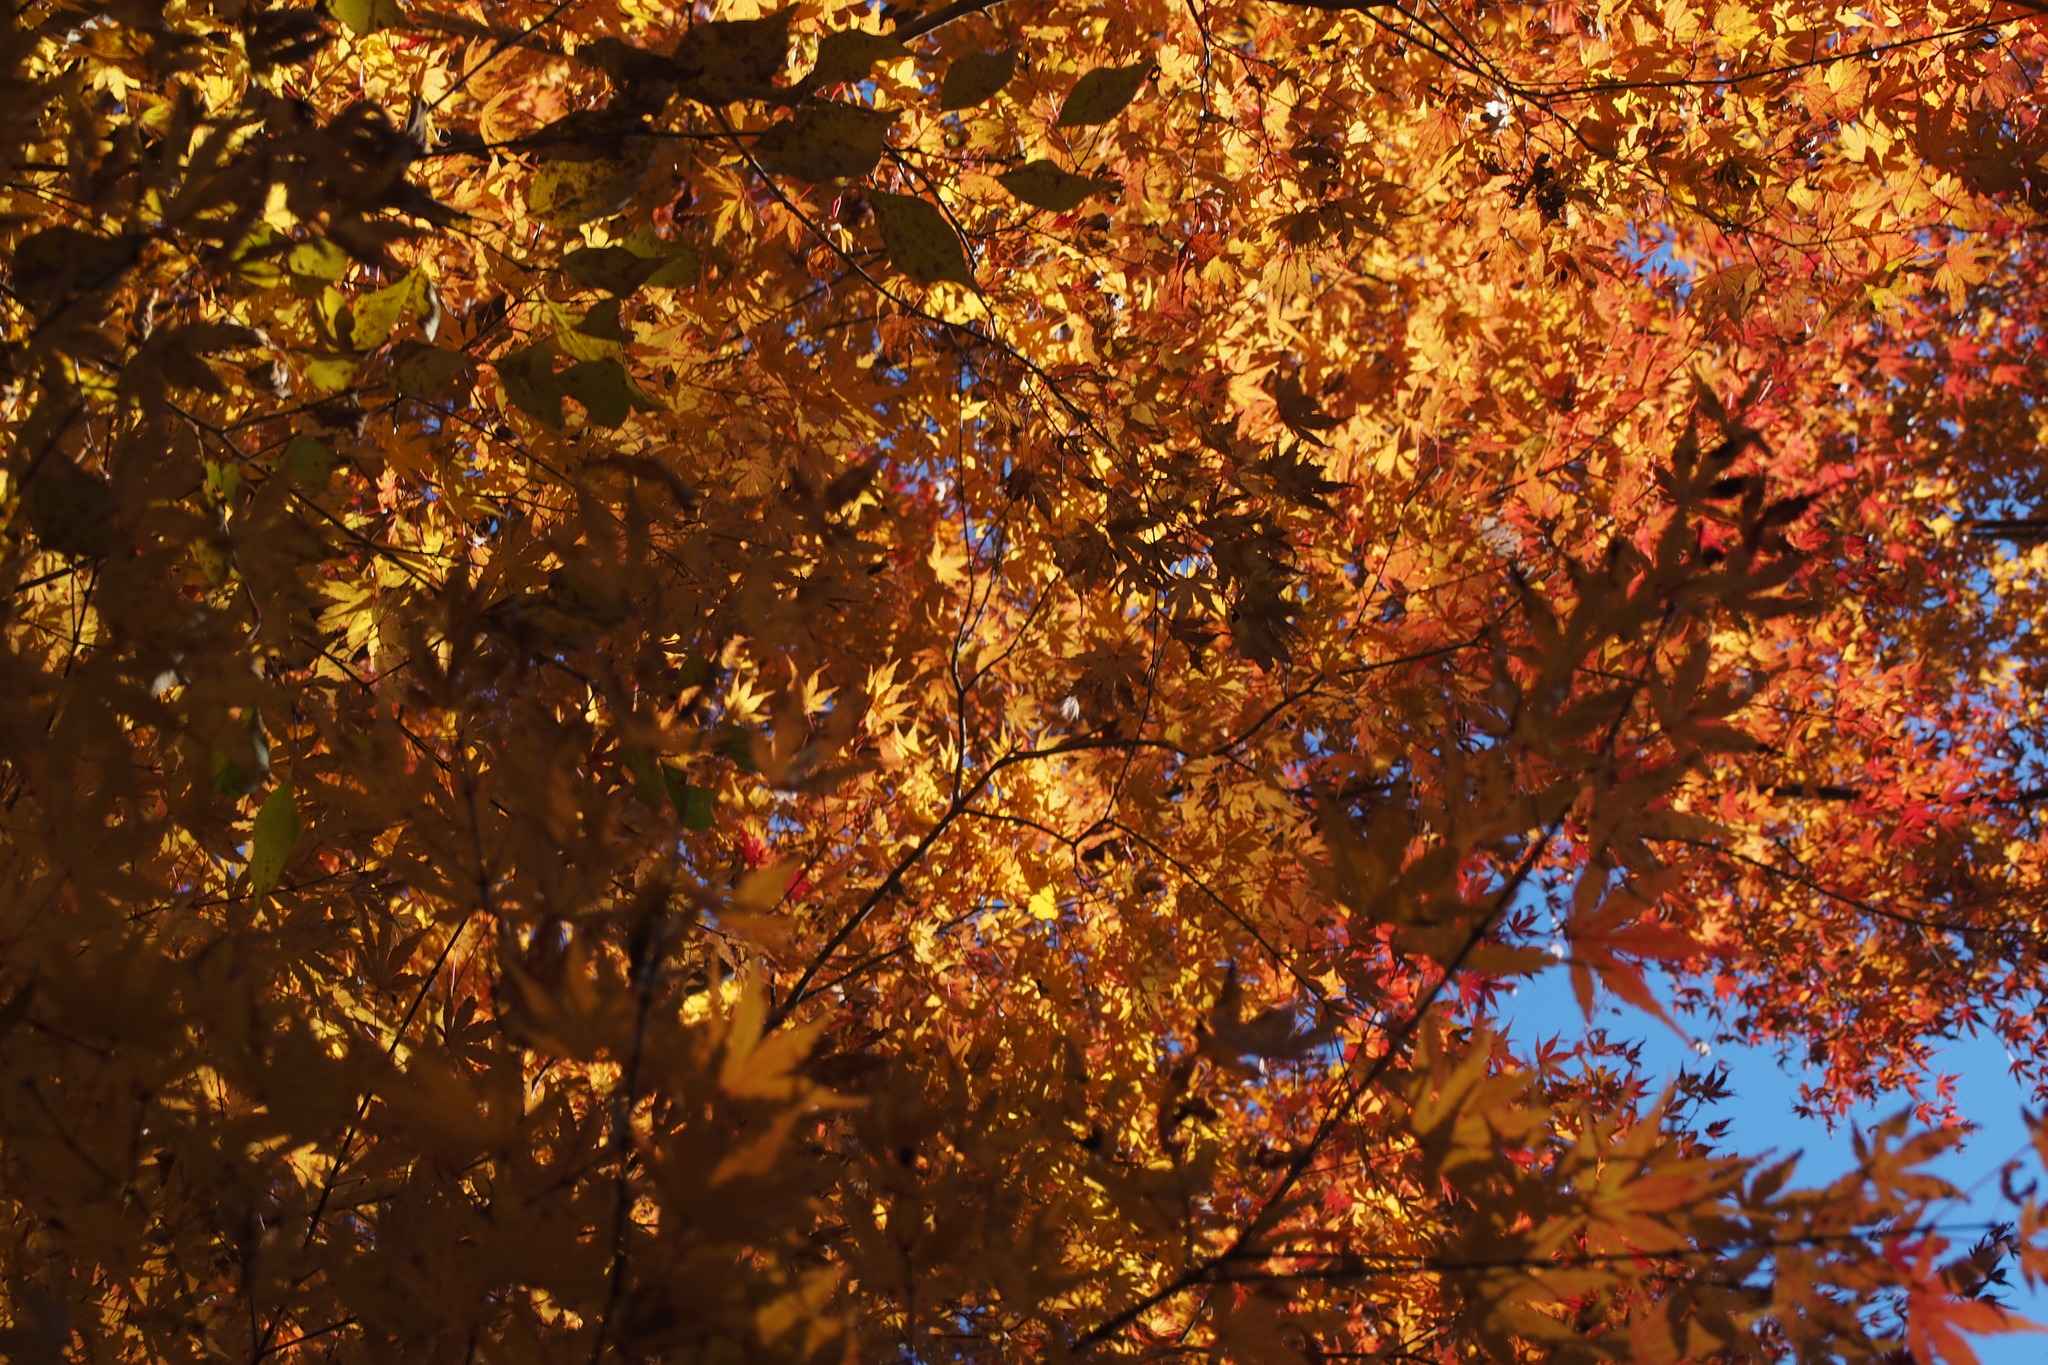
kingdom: Plantae
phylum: Tracheophyta
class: Magnoliopsida
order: Sapindales
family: Sapindaceae
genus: Acer
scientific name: Acer palmatum
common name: Japanese maple
